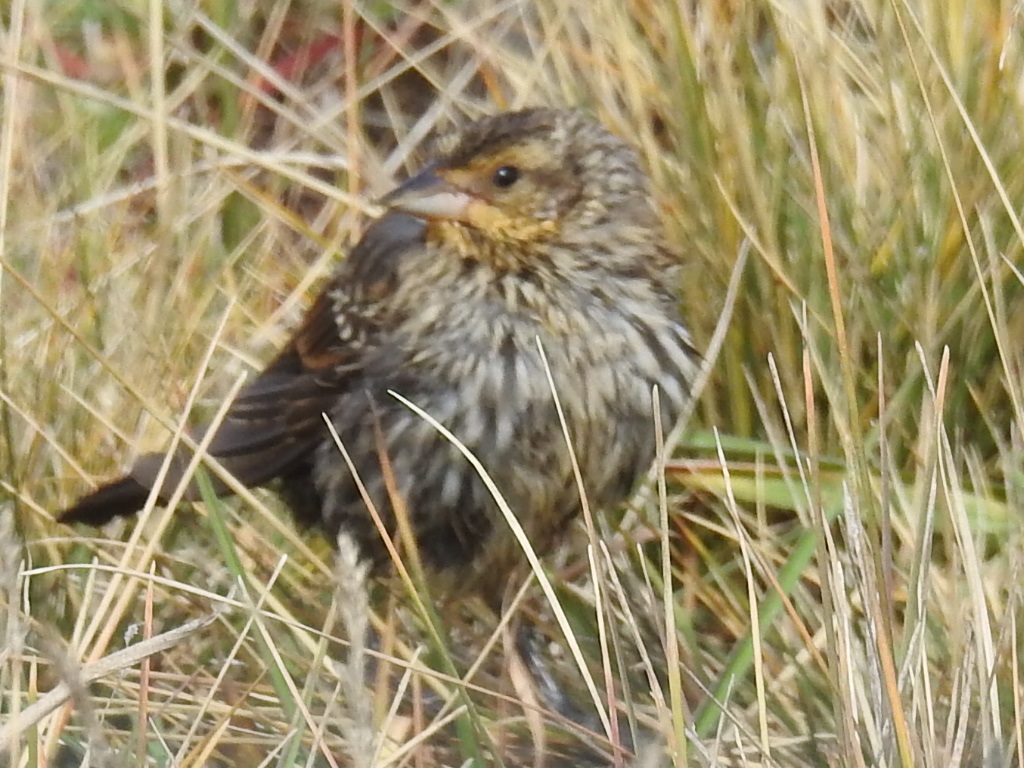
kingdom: Animalia
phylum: Chordata
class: Aves
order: Passeriformes
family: Icteridae
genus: Agelaius
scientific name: Agelaius phoeniceus
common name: Red-winged blackbird
